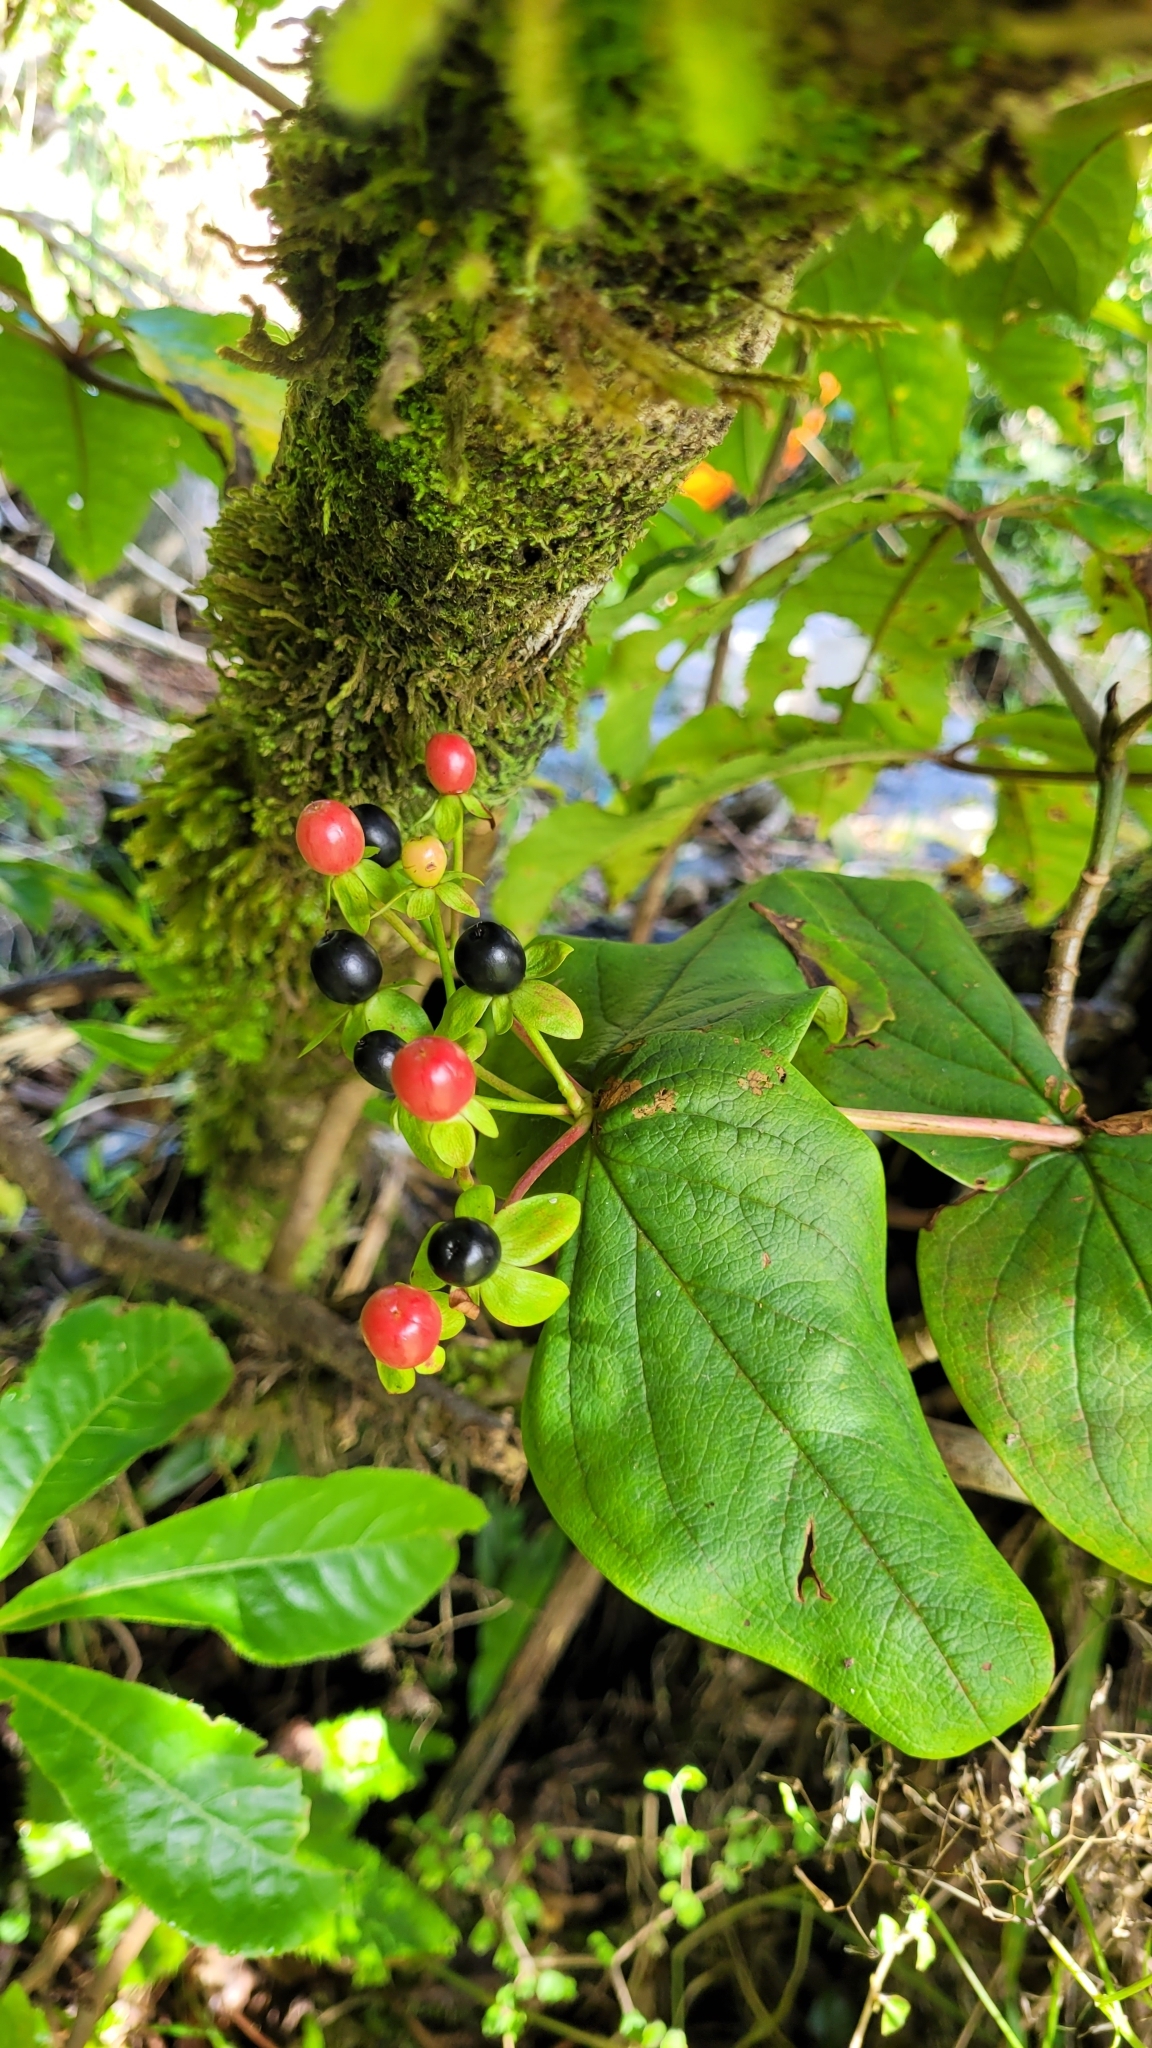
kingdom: Plantae
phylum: Tracheophyta
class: Magnoliopsida
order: Malpighiales
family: Hypericaceae
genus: Hypericum
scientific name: Hypericum androsaemum
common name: Sweet-amber
